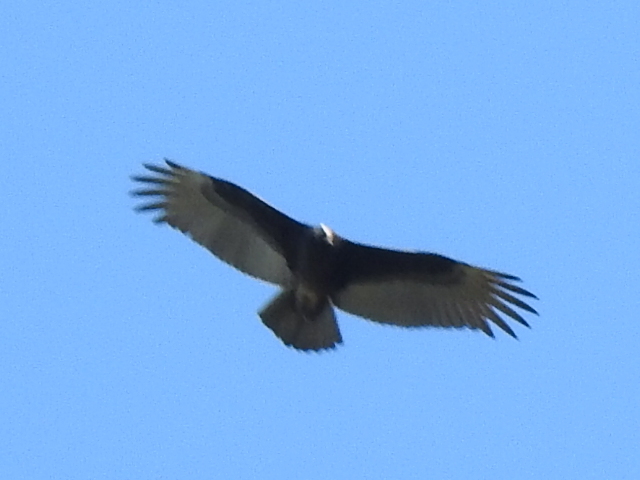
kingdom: Animalia
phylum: Chordata
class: Aves
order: Accipitriformes
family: Cathartidae
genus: Cathartes
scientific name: Cathartes aura
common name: Turkey vulture
